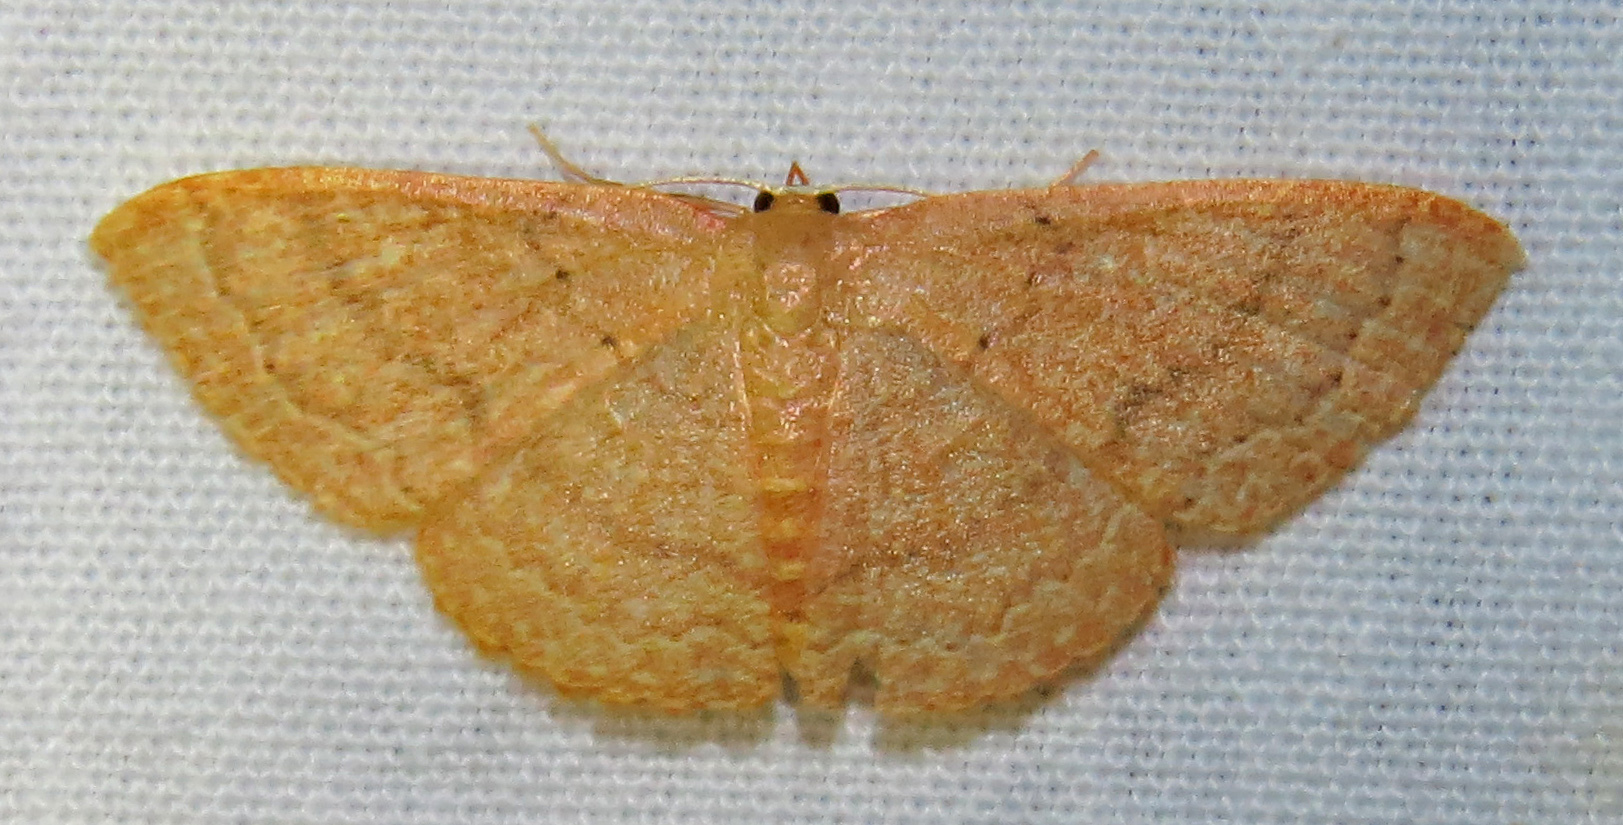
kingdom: Animalia
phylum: Arthropoda
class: Insecta
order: Lepidoptera
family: Geometridae
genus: Pleuroprucha
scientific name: Pleuroprucha insulsaria
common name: Common tan wave
